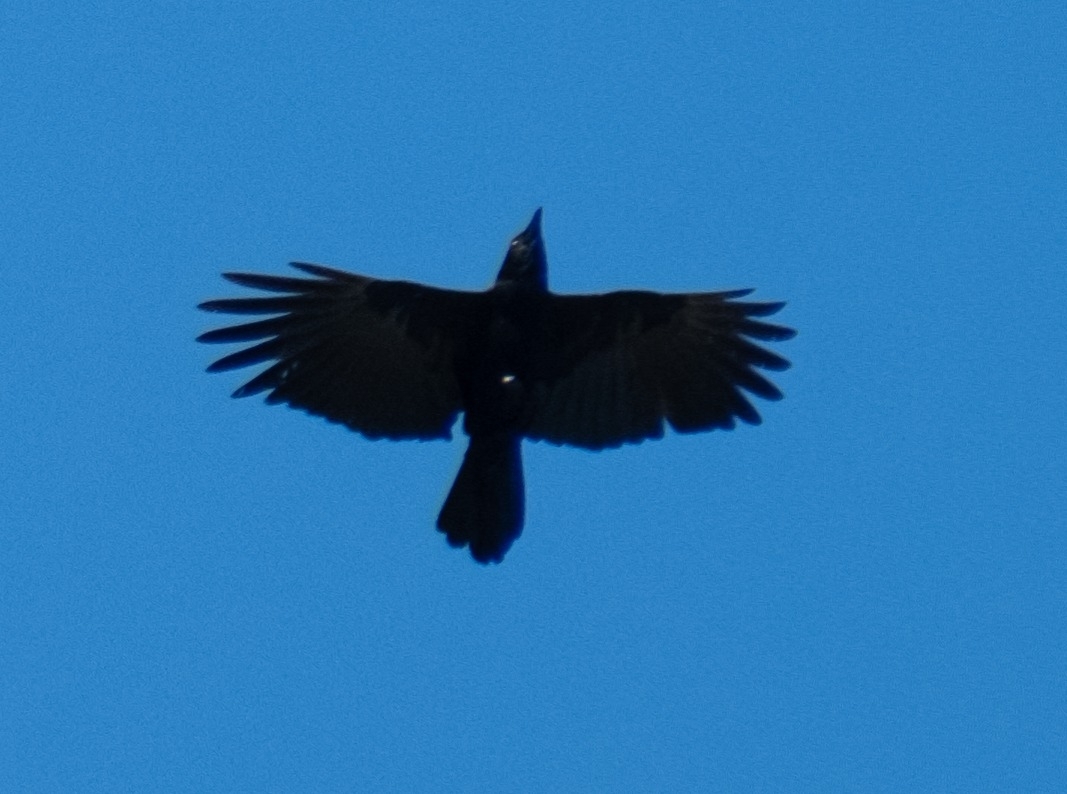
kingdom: Animalia
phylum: Chordata
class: Aves
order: Passeriformes
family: Corvidae
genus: Corvus
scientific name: Corvus corone
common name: Carrion crow
